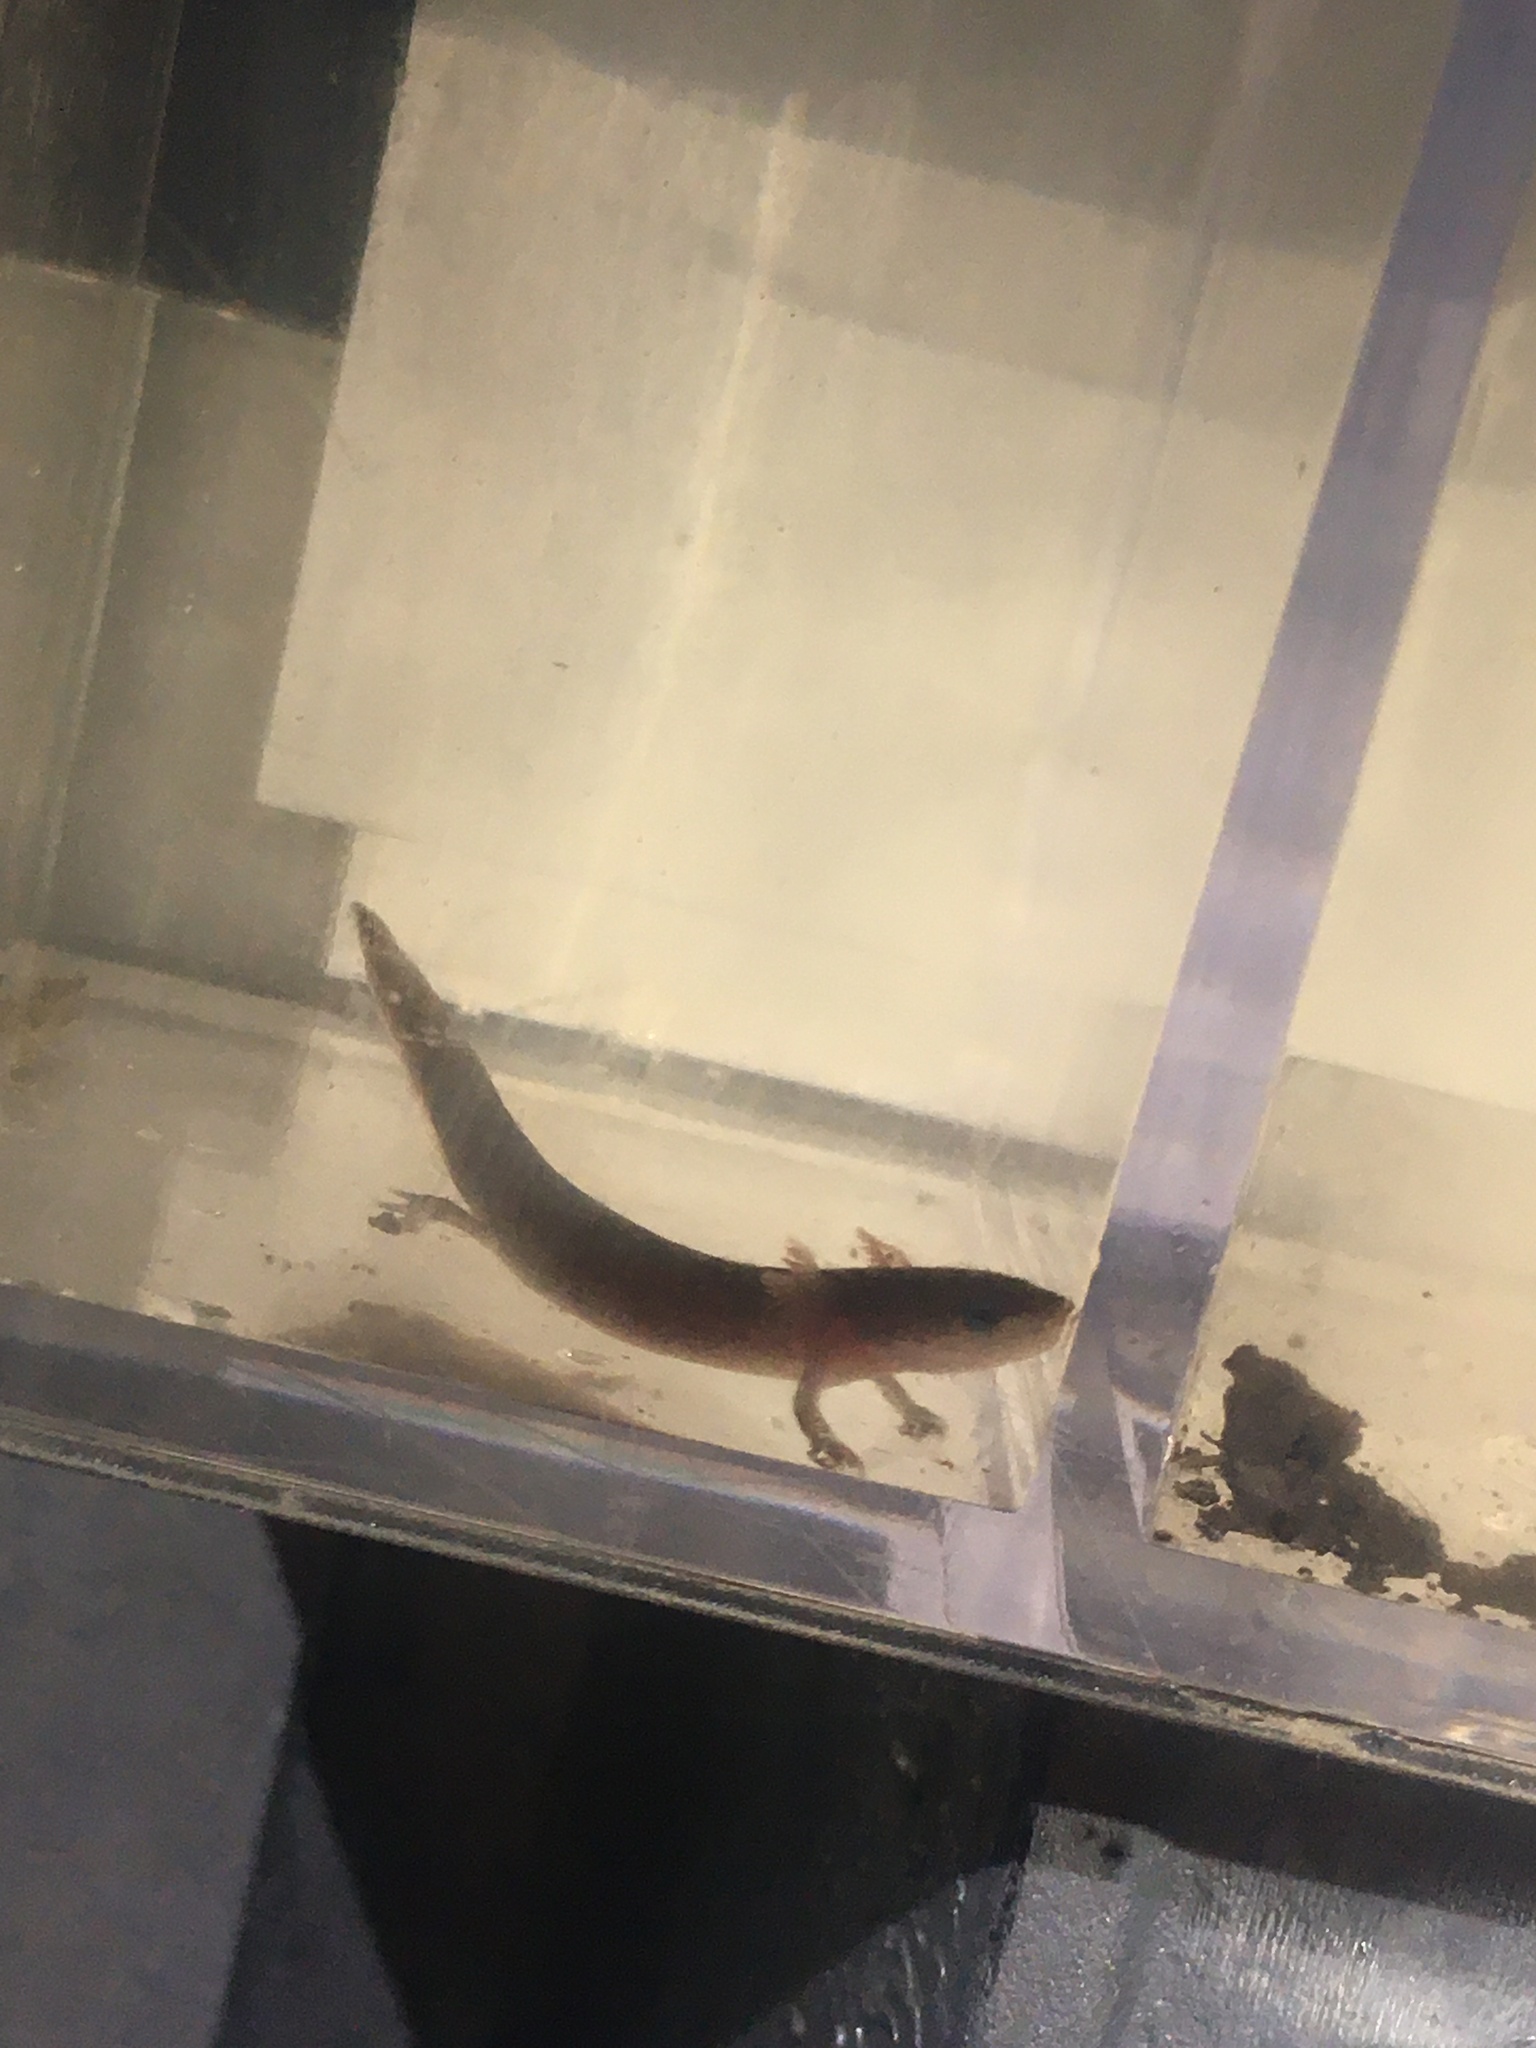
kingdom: Animalia
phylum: Chordata
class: Amphibia
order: Caudata
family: Proteidae
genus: Necturus
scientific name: Necturus punctatus
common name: Dwarf waterdog
